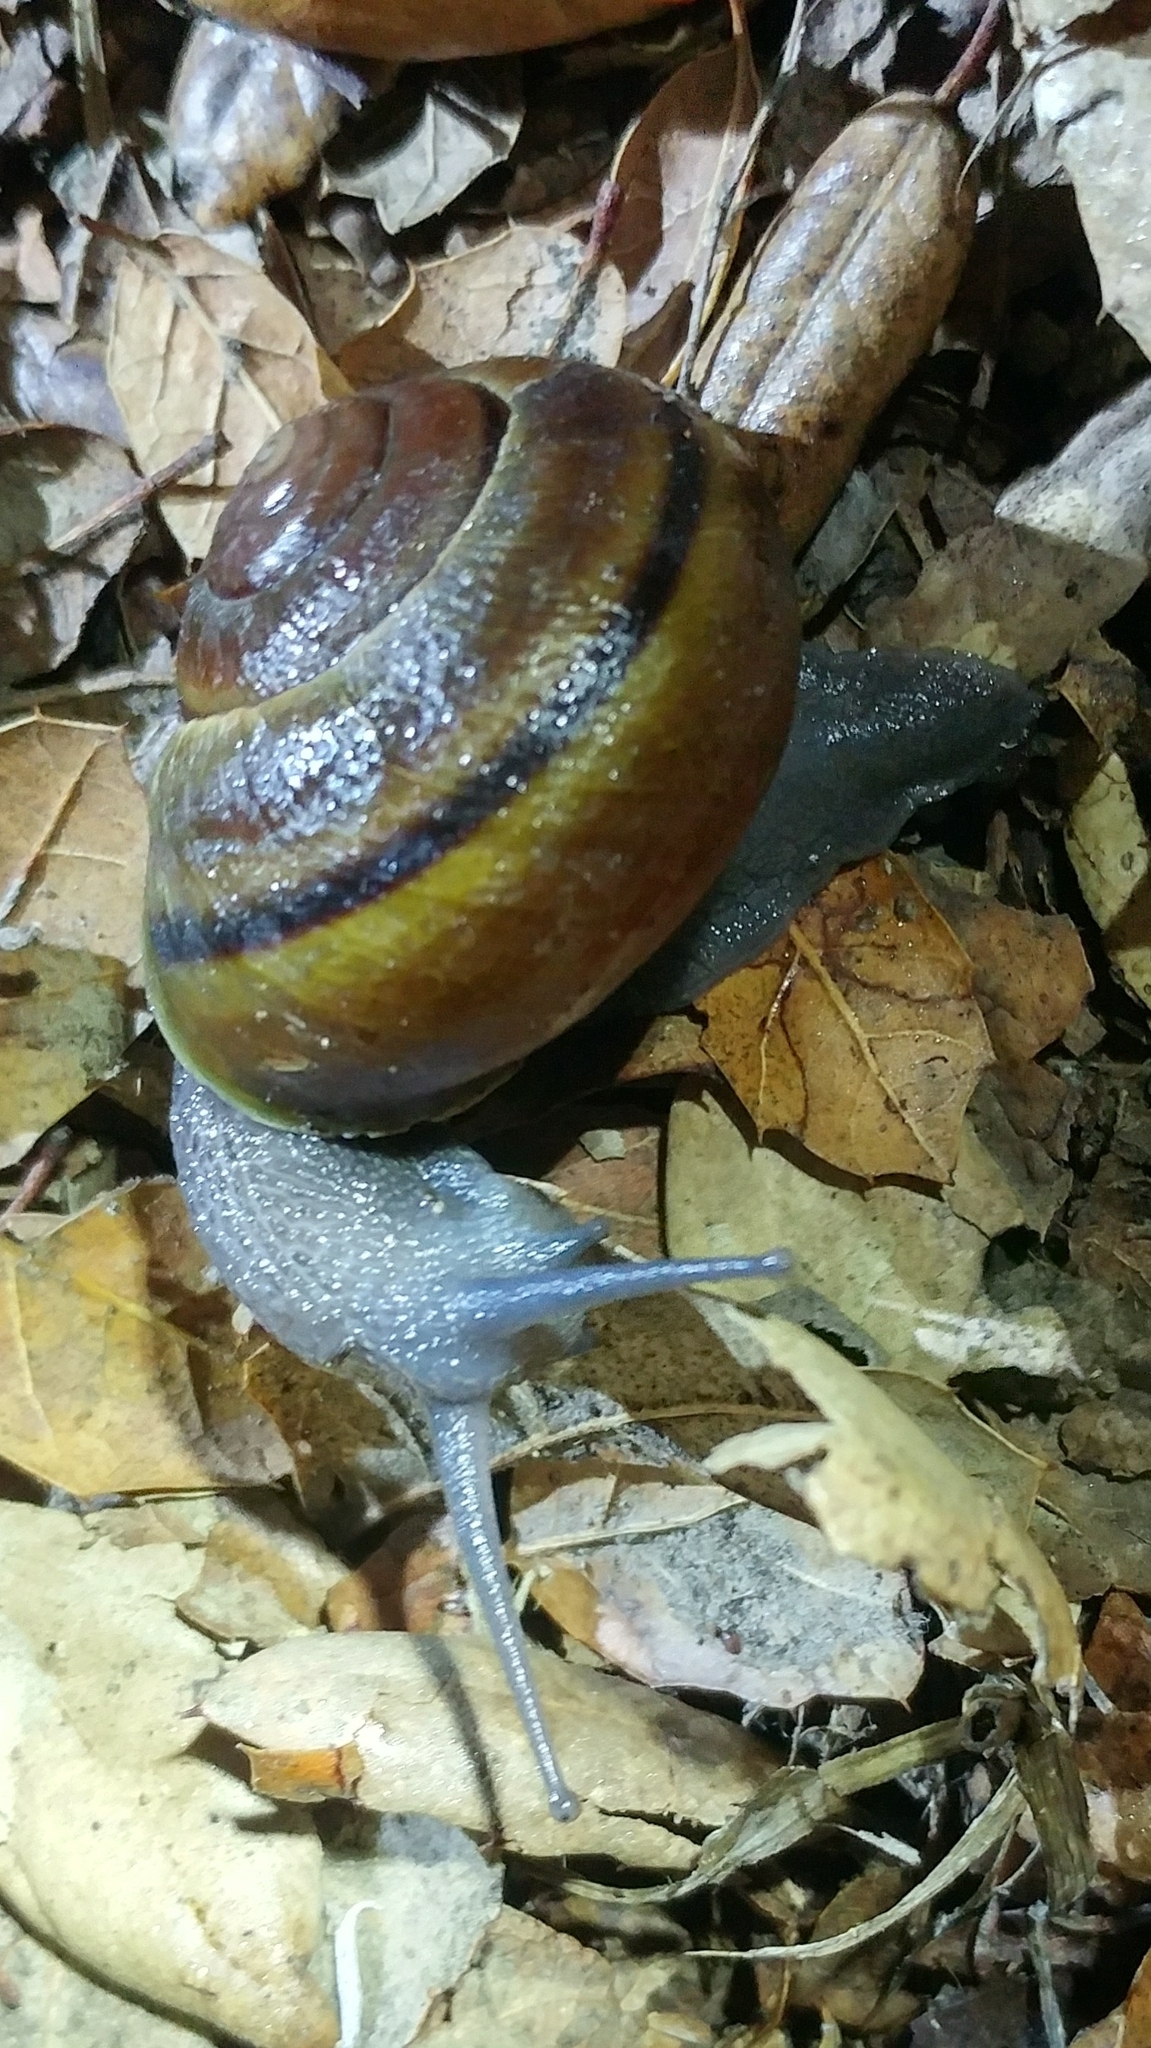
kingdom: Animalia
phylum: Mollusca
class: Gastropoda
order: Stylommatophora
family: Xanthonychidae
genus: Helminthoglypta
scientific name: Helminthoglypta tudiculata
